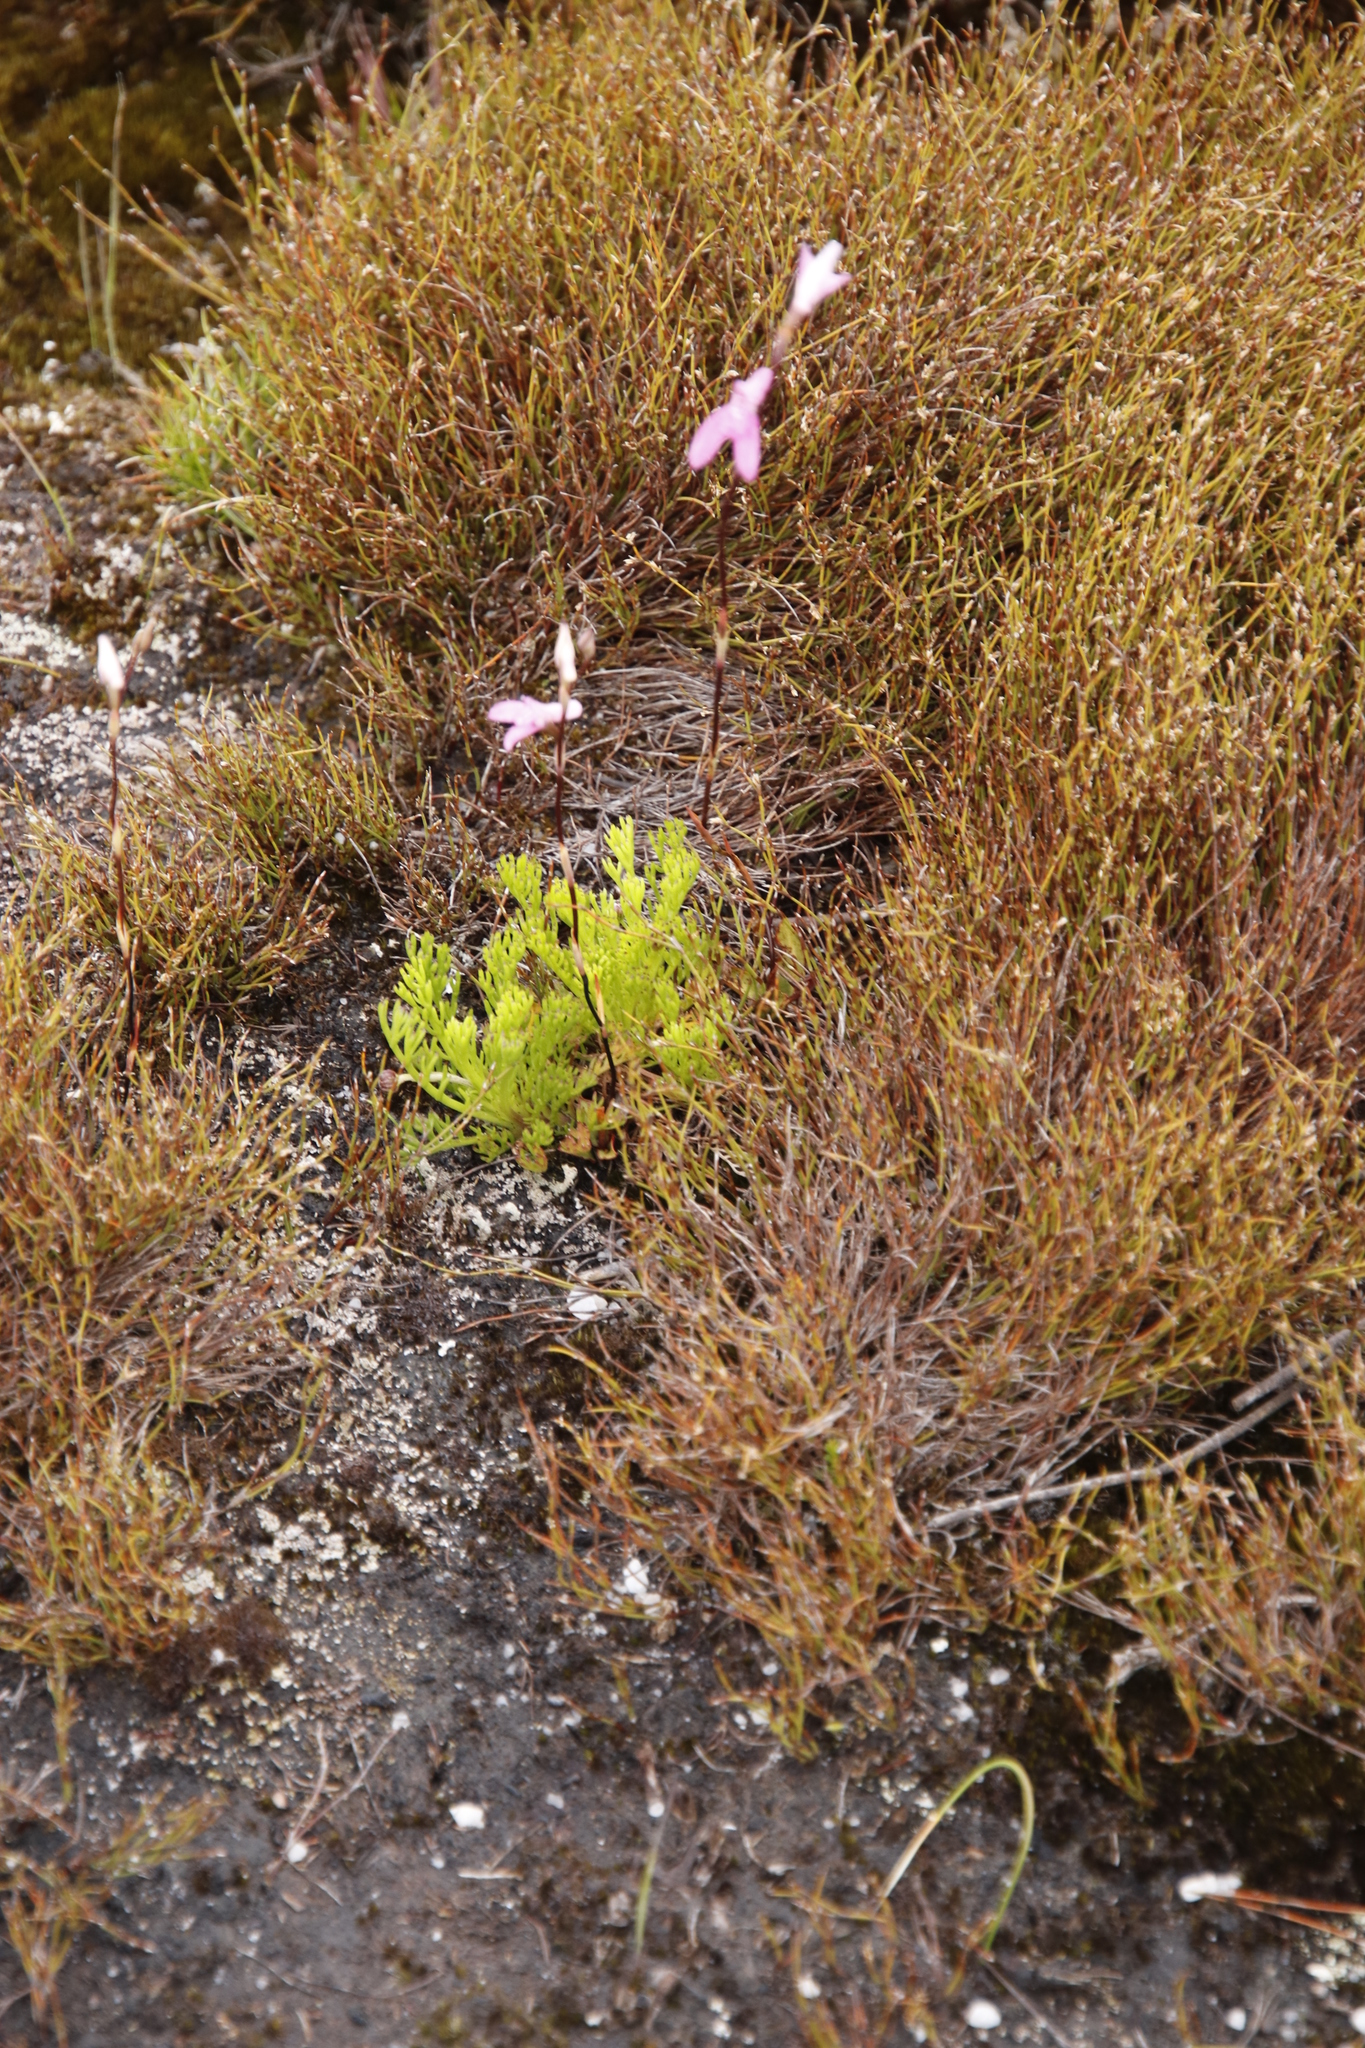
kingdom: Plantae
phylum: Tracheophyta
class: Liliopsida
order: Asparagales
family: Orchidaceae
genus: Disa
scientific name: Disa inflexa
